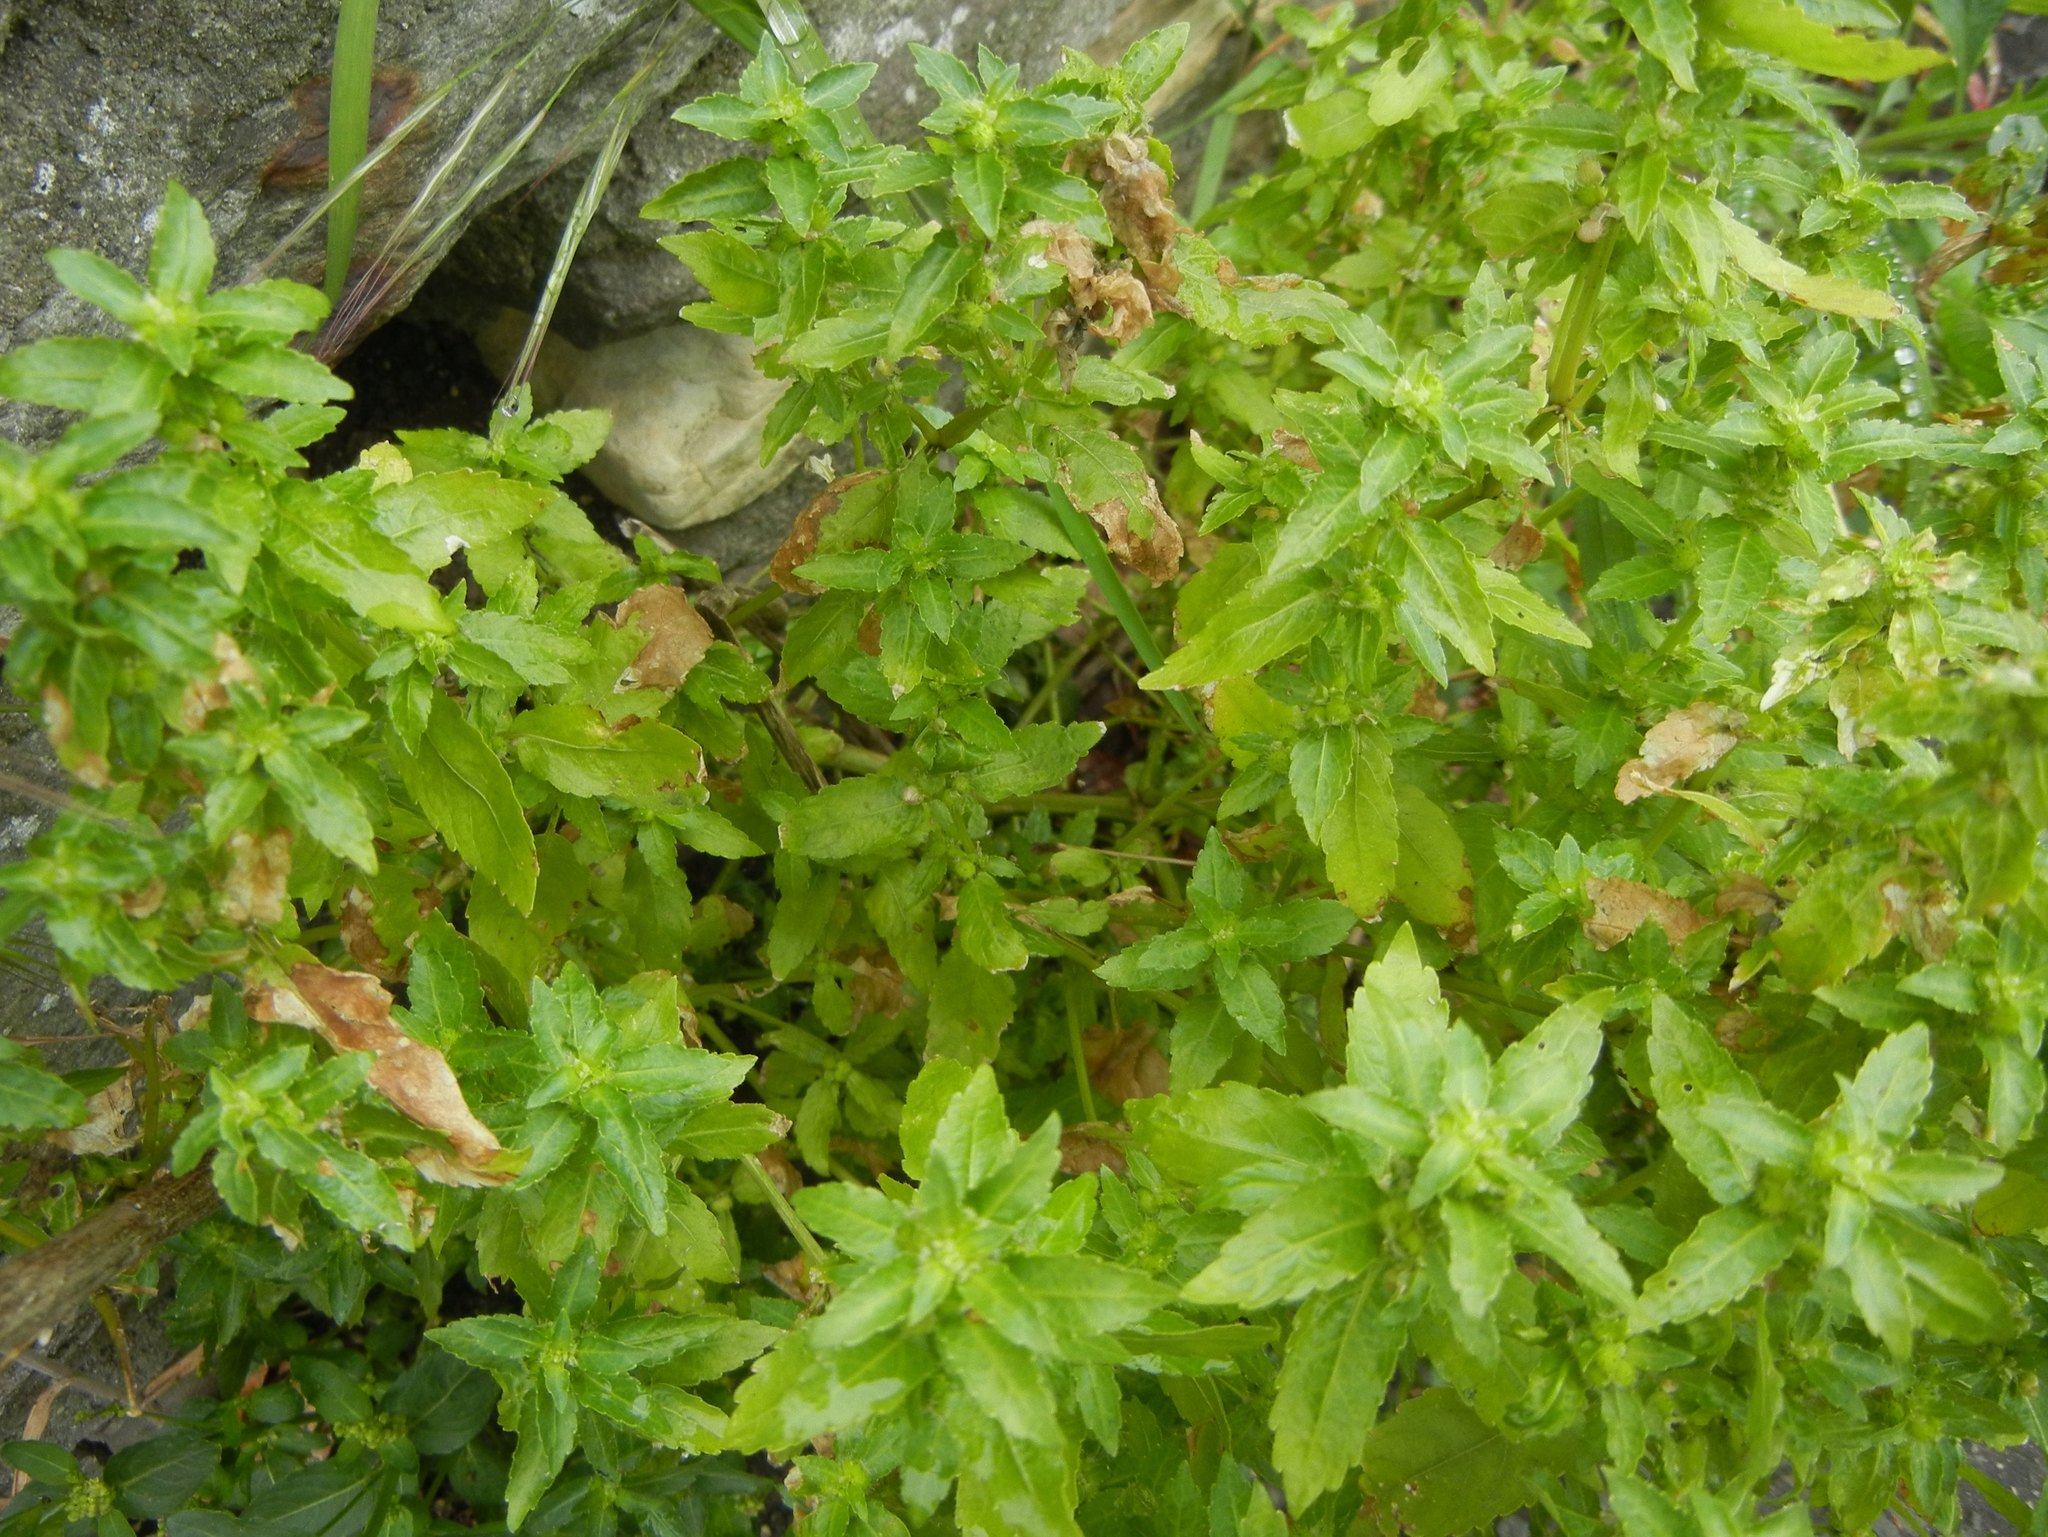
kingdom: Plantae
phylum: Tracheophyta
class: Magnoliopsida
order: Malpighiales
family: Euphorbiaceae
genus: Mercurialis
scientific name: Mercurialis annua
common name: Annual mercury
